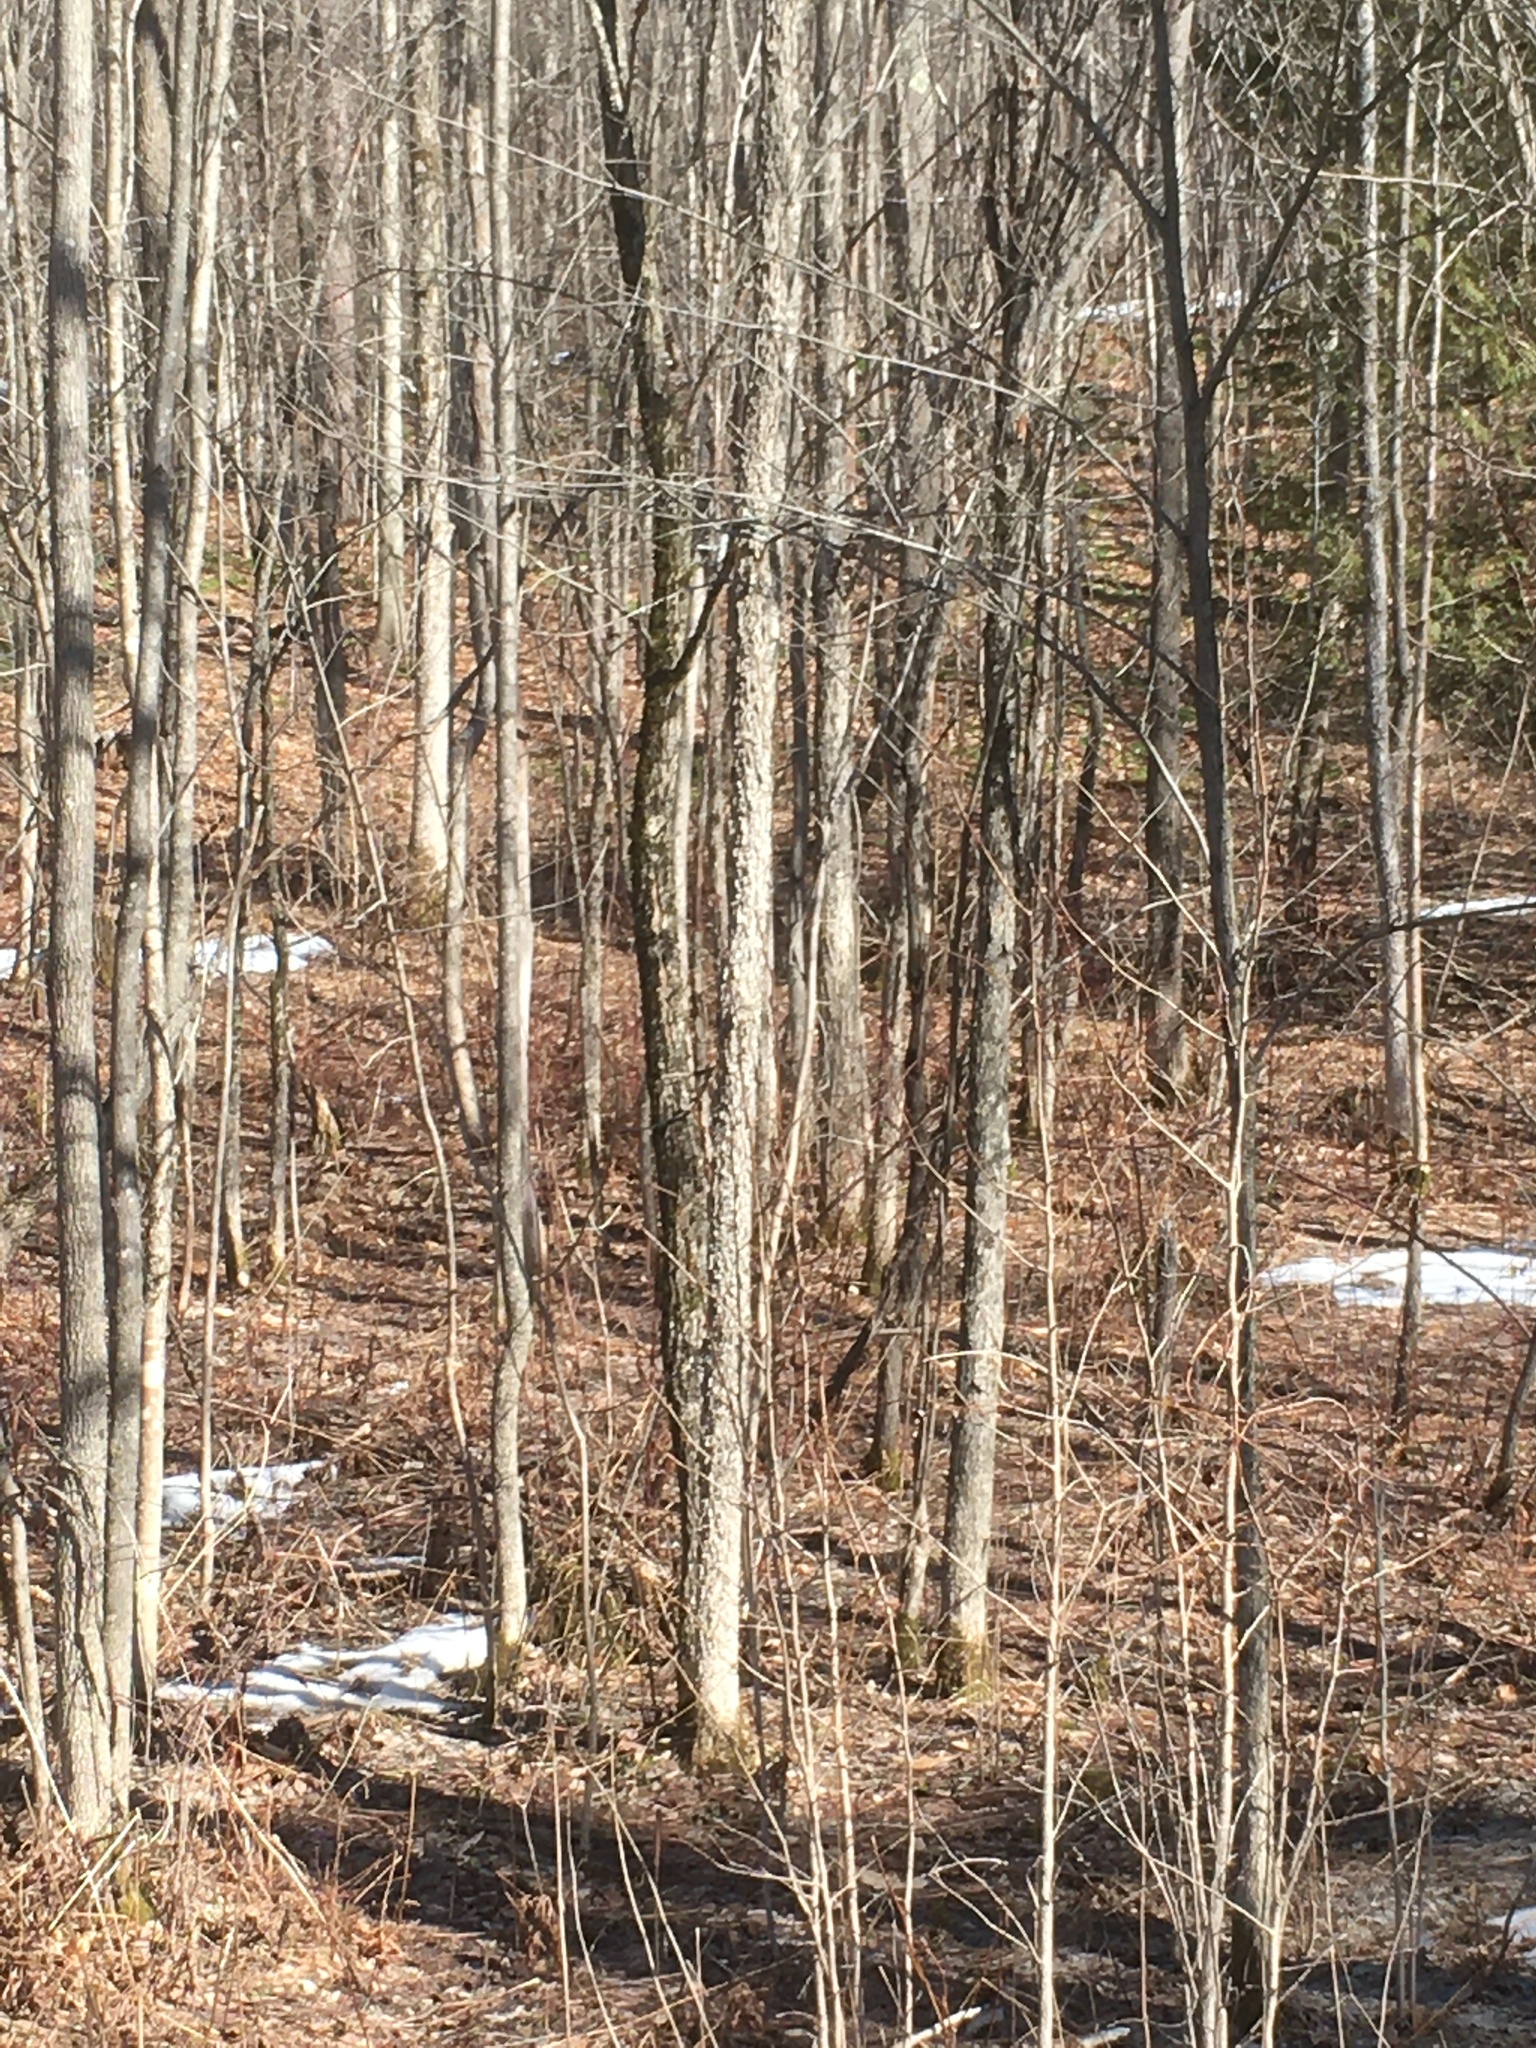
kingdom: Plantae
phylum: Tracheophyta
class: Magnoliopsida
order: Lamiales
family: Oleaceae
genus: Fraxinus
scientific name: Fraxinus nigra
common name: Black ash
